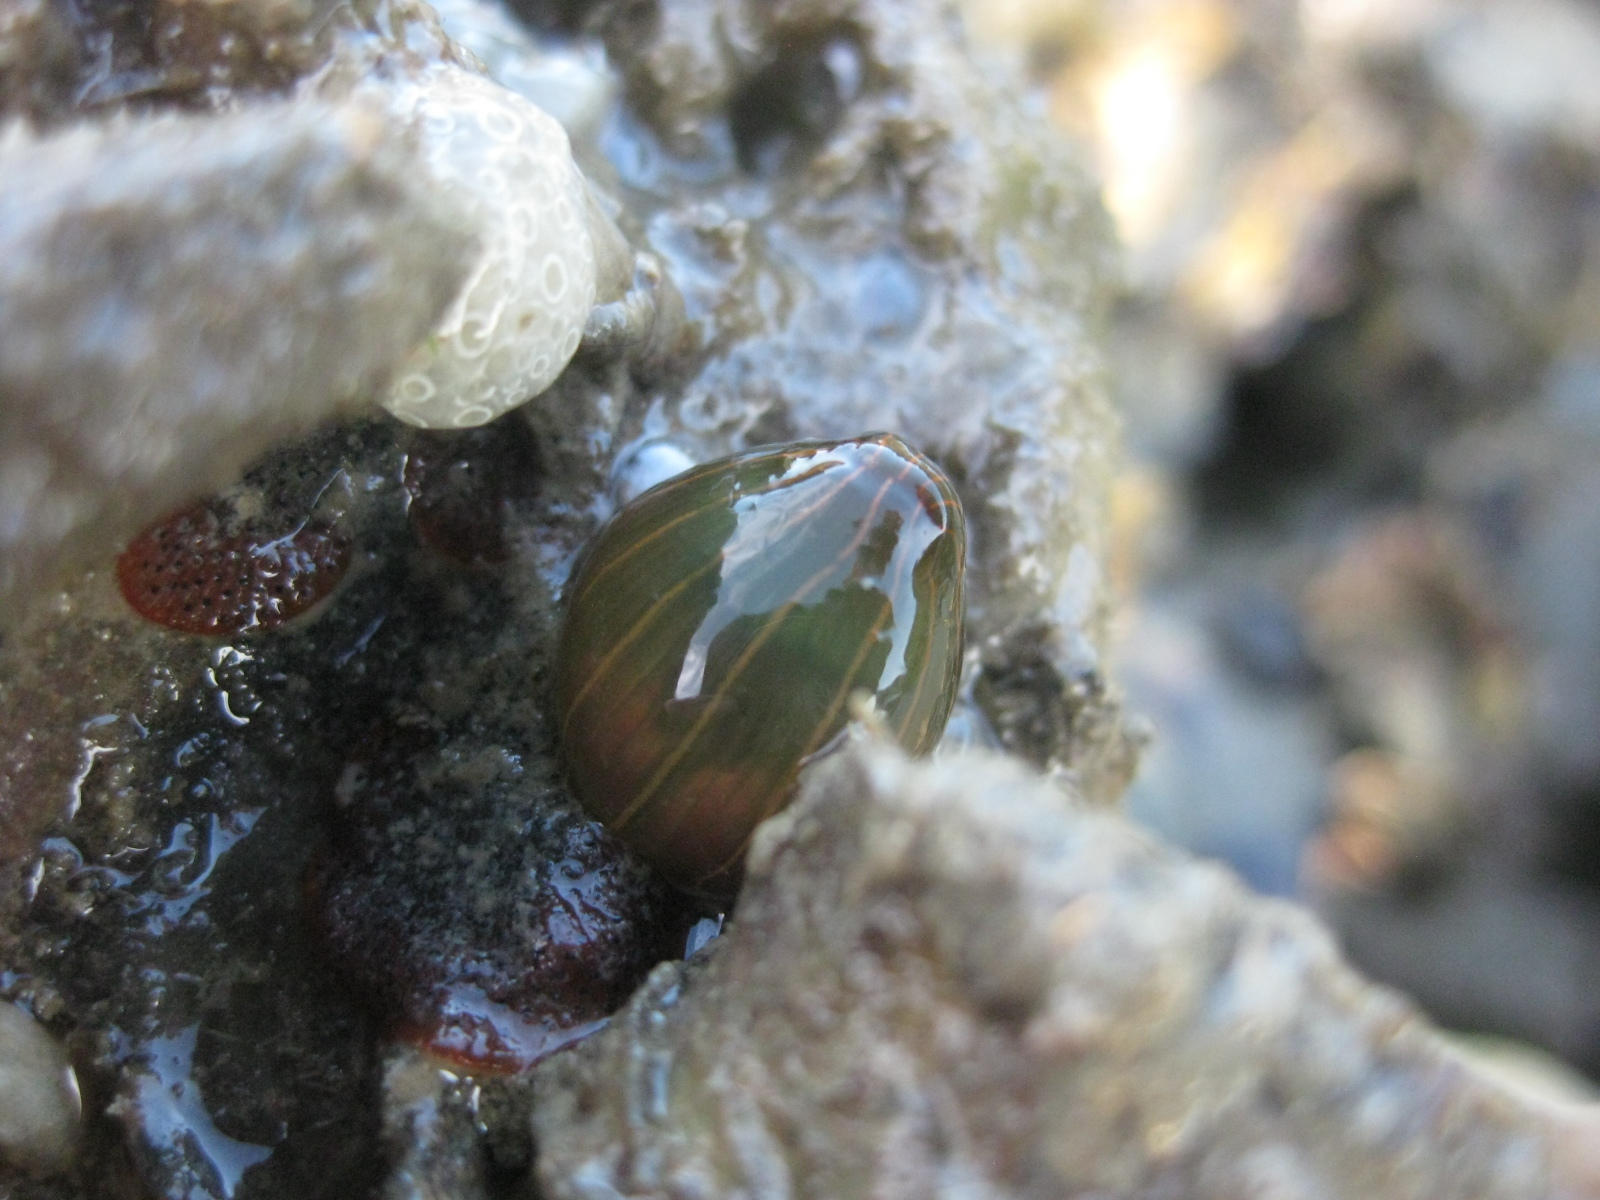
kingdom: Animalia
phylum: Cnidaria
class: Anthozoa
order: Actiniaria
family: Diadumenidae
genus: Diadumene
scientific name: Diadumene lineata
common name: Orange-striped anemone
